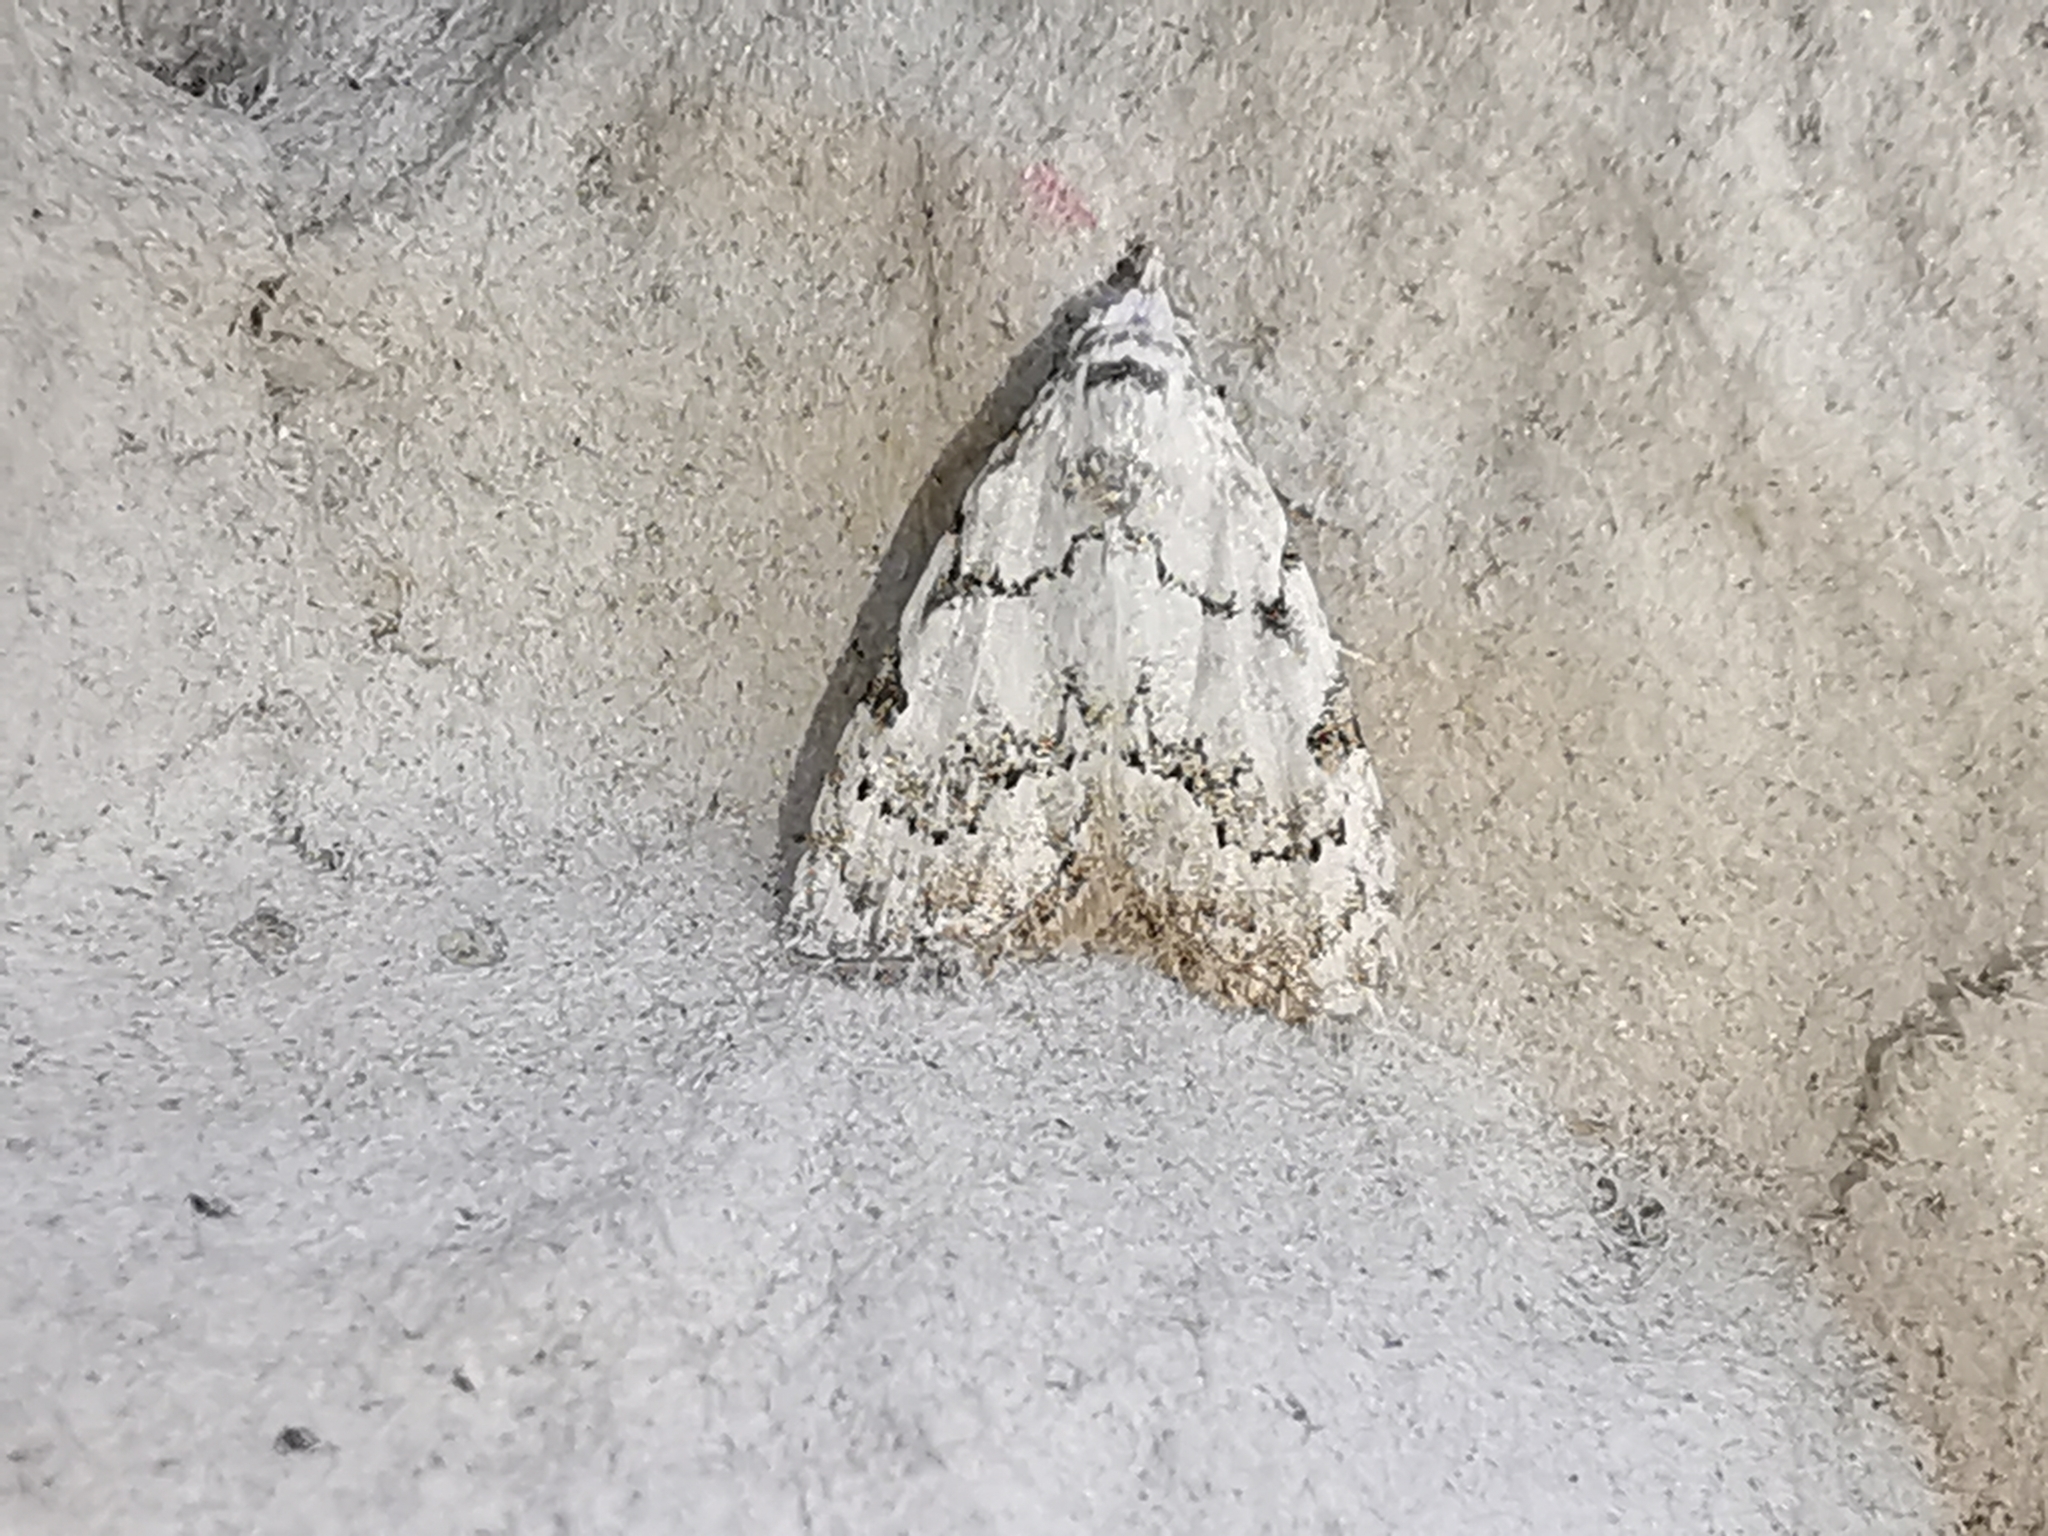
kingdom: Animalia
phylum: Arthropoda
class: Insecta
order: Lepidoptera
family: Nolidae
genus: Nola
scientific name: Nola confusalis
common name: Least black arches
